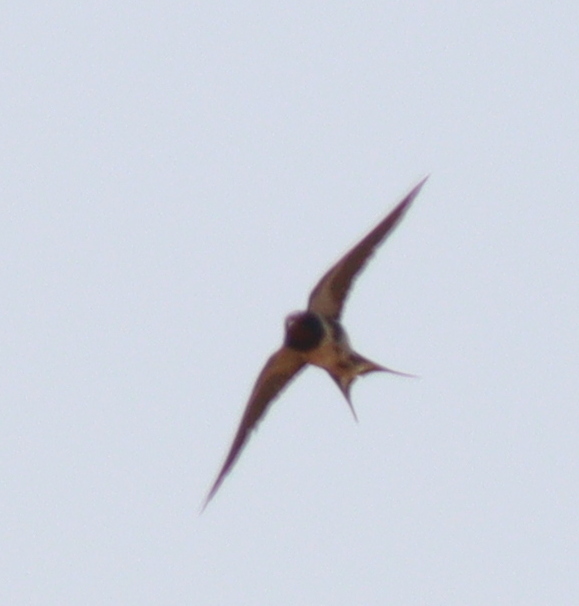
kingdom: Animalia
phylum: Chordata
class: Aves
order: Passeriformes
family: Hirundinidae
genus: Hirundo
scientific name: Hirundo rustica
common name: Barn swallow
